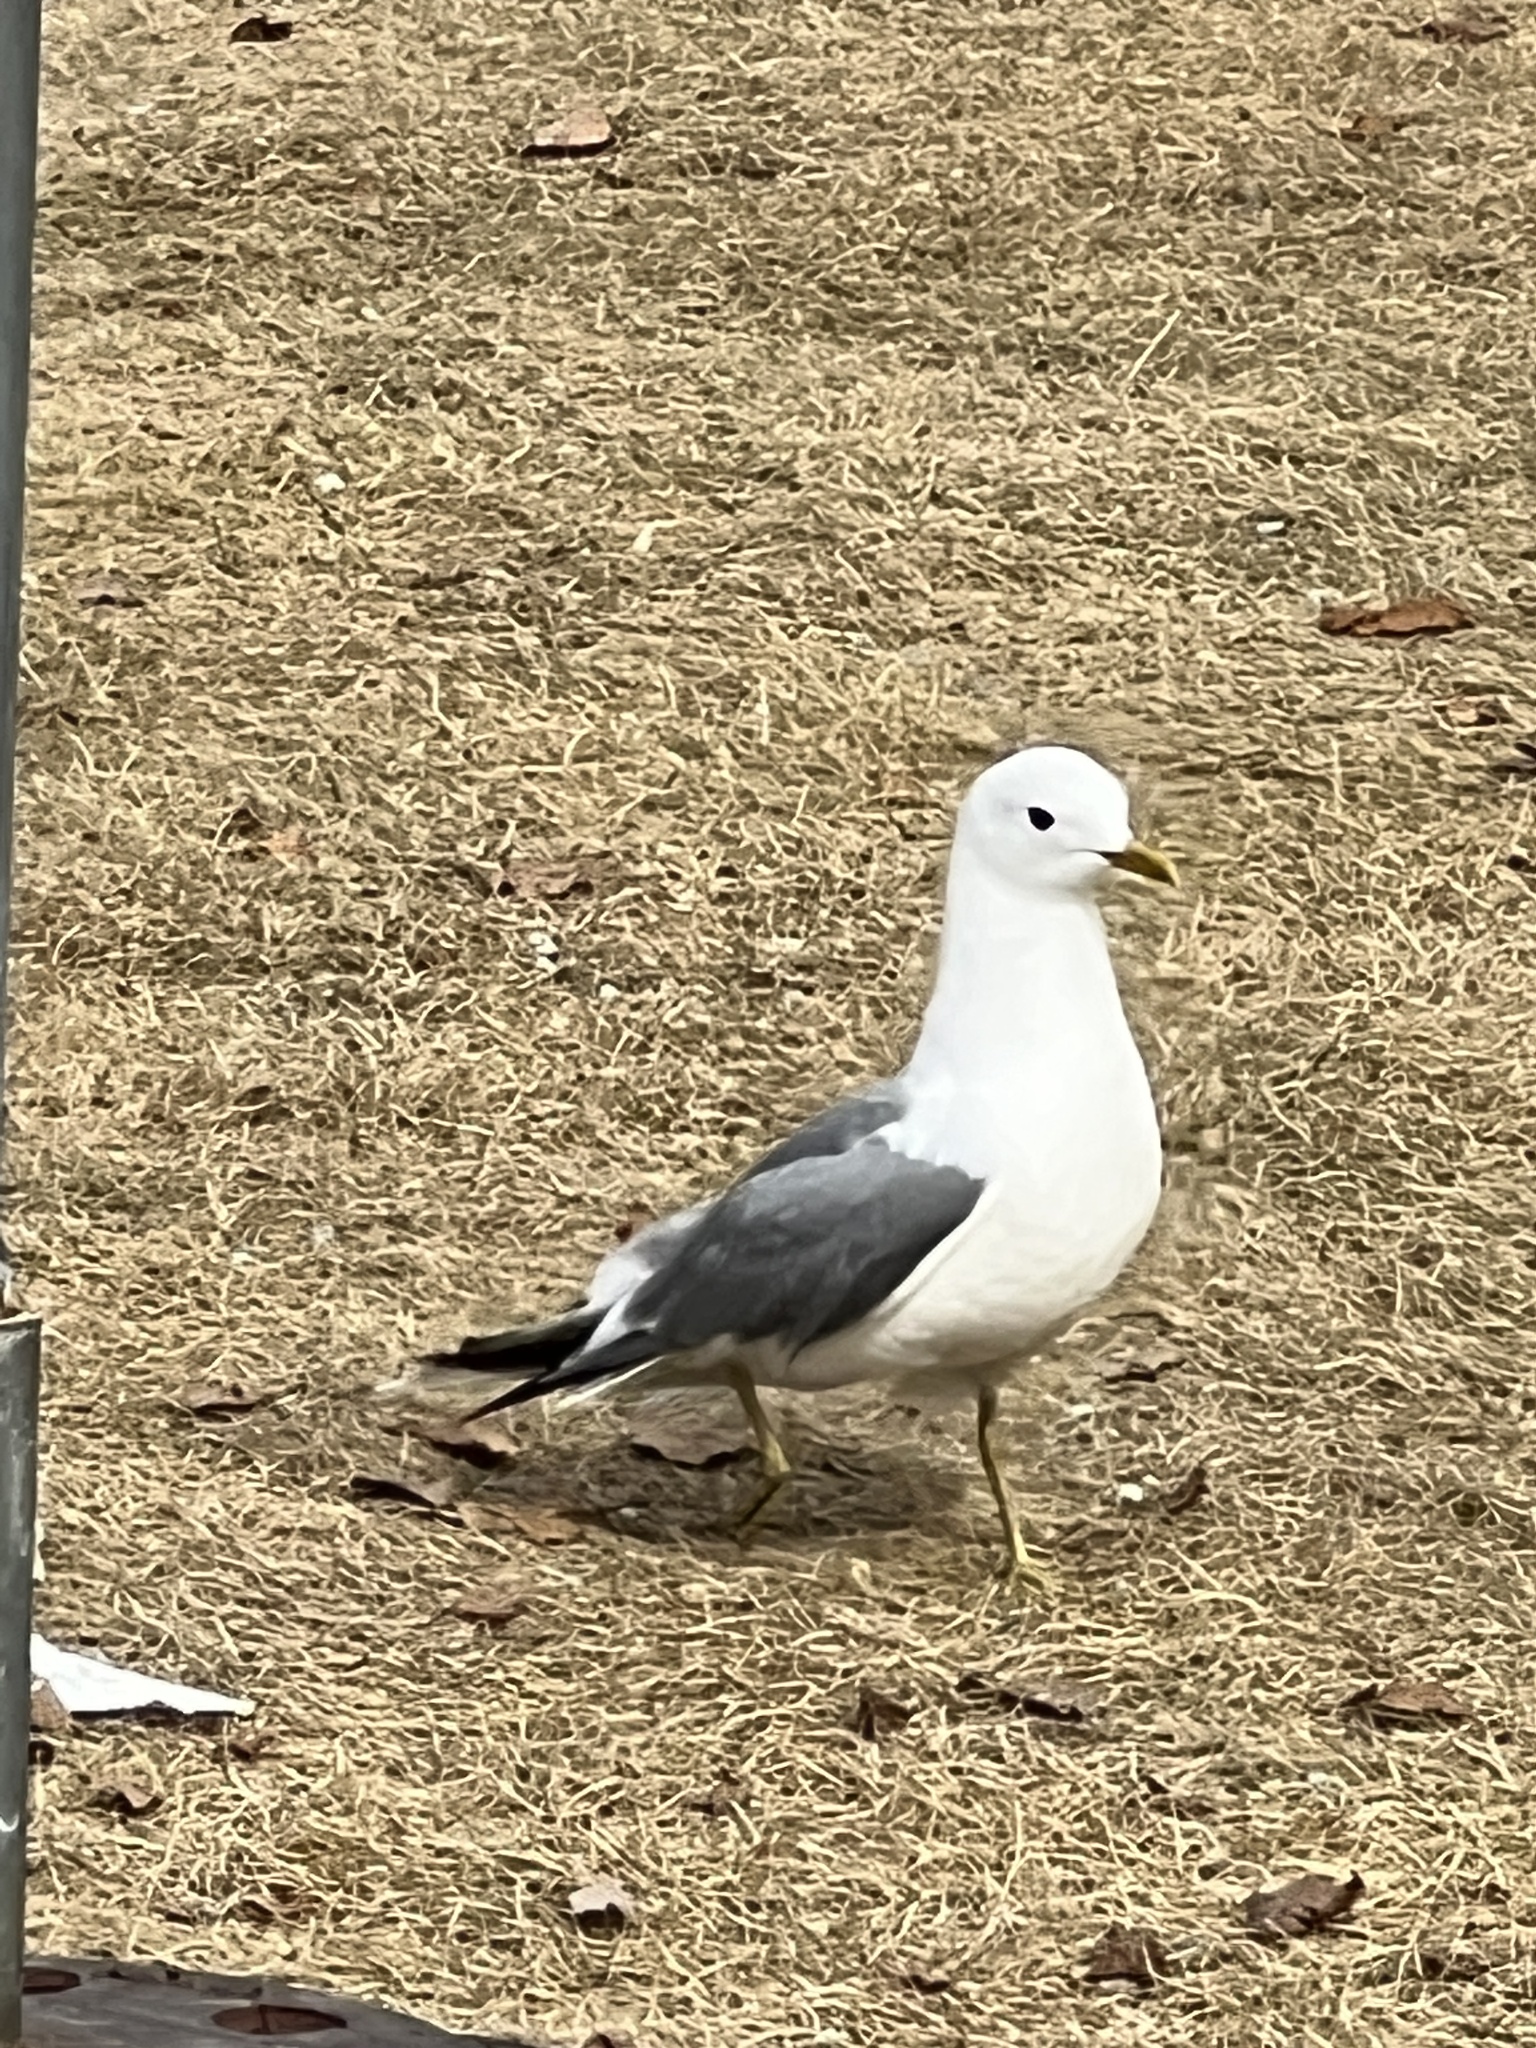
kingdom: Animalia
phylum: Chordata
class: Aves
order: Charadriiformes
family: Laridae
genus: Larus
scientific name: Larus brachyrhynchus
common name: Short-billed gull
